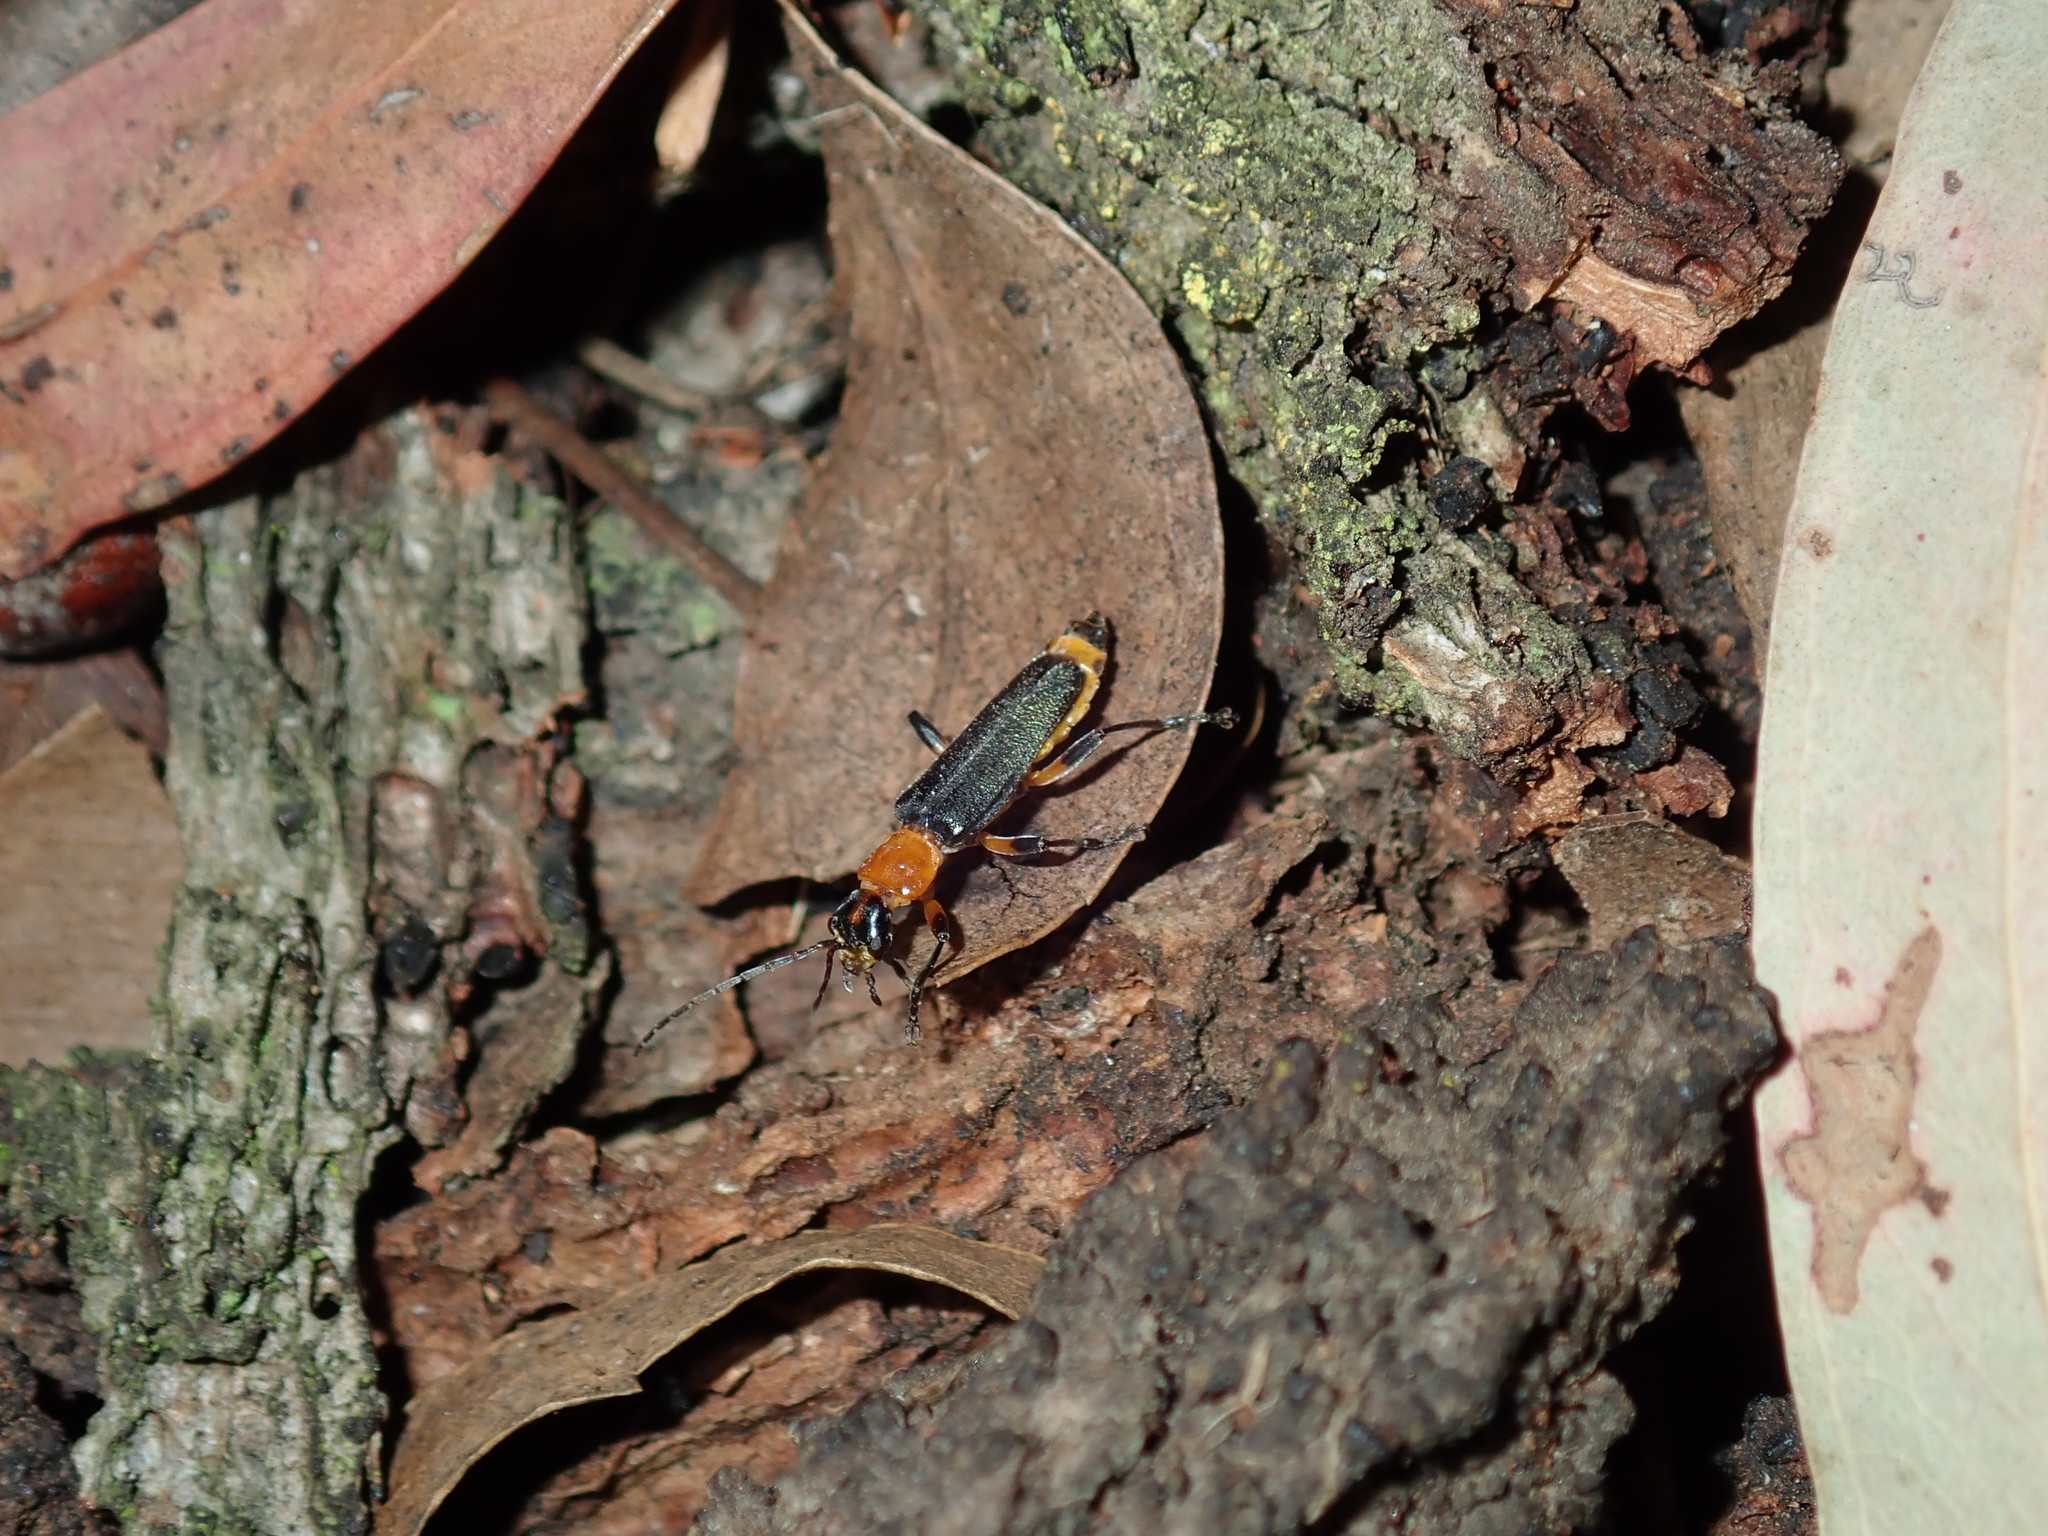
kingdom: Animalia
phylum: Arthropoda
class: Insecta
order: Coleoptera
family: Cantharidae
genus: Chauliognathus
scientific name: Chauliognathus
